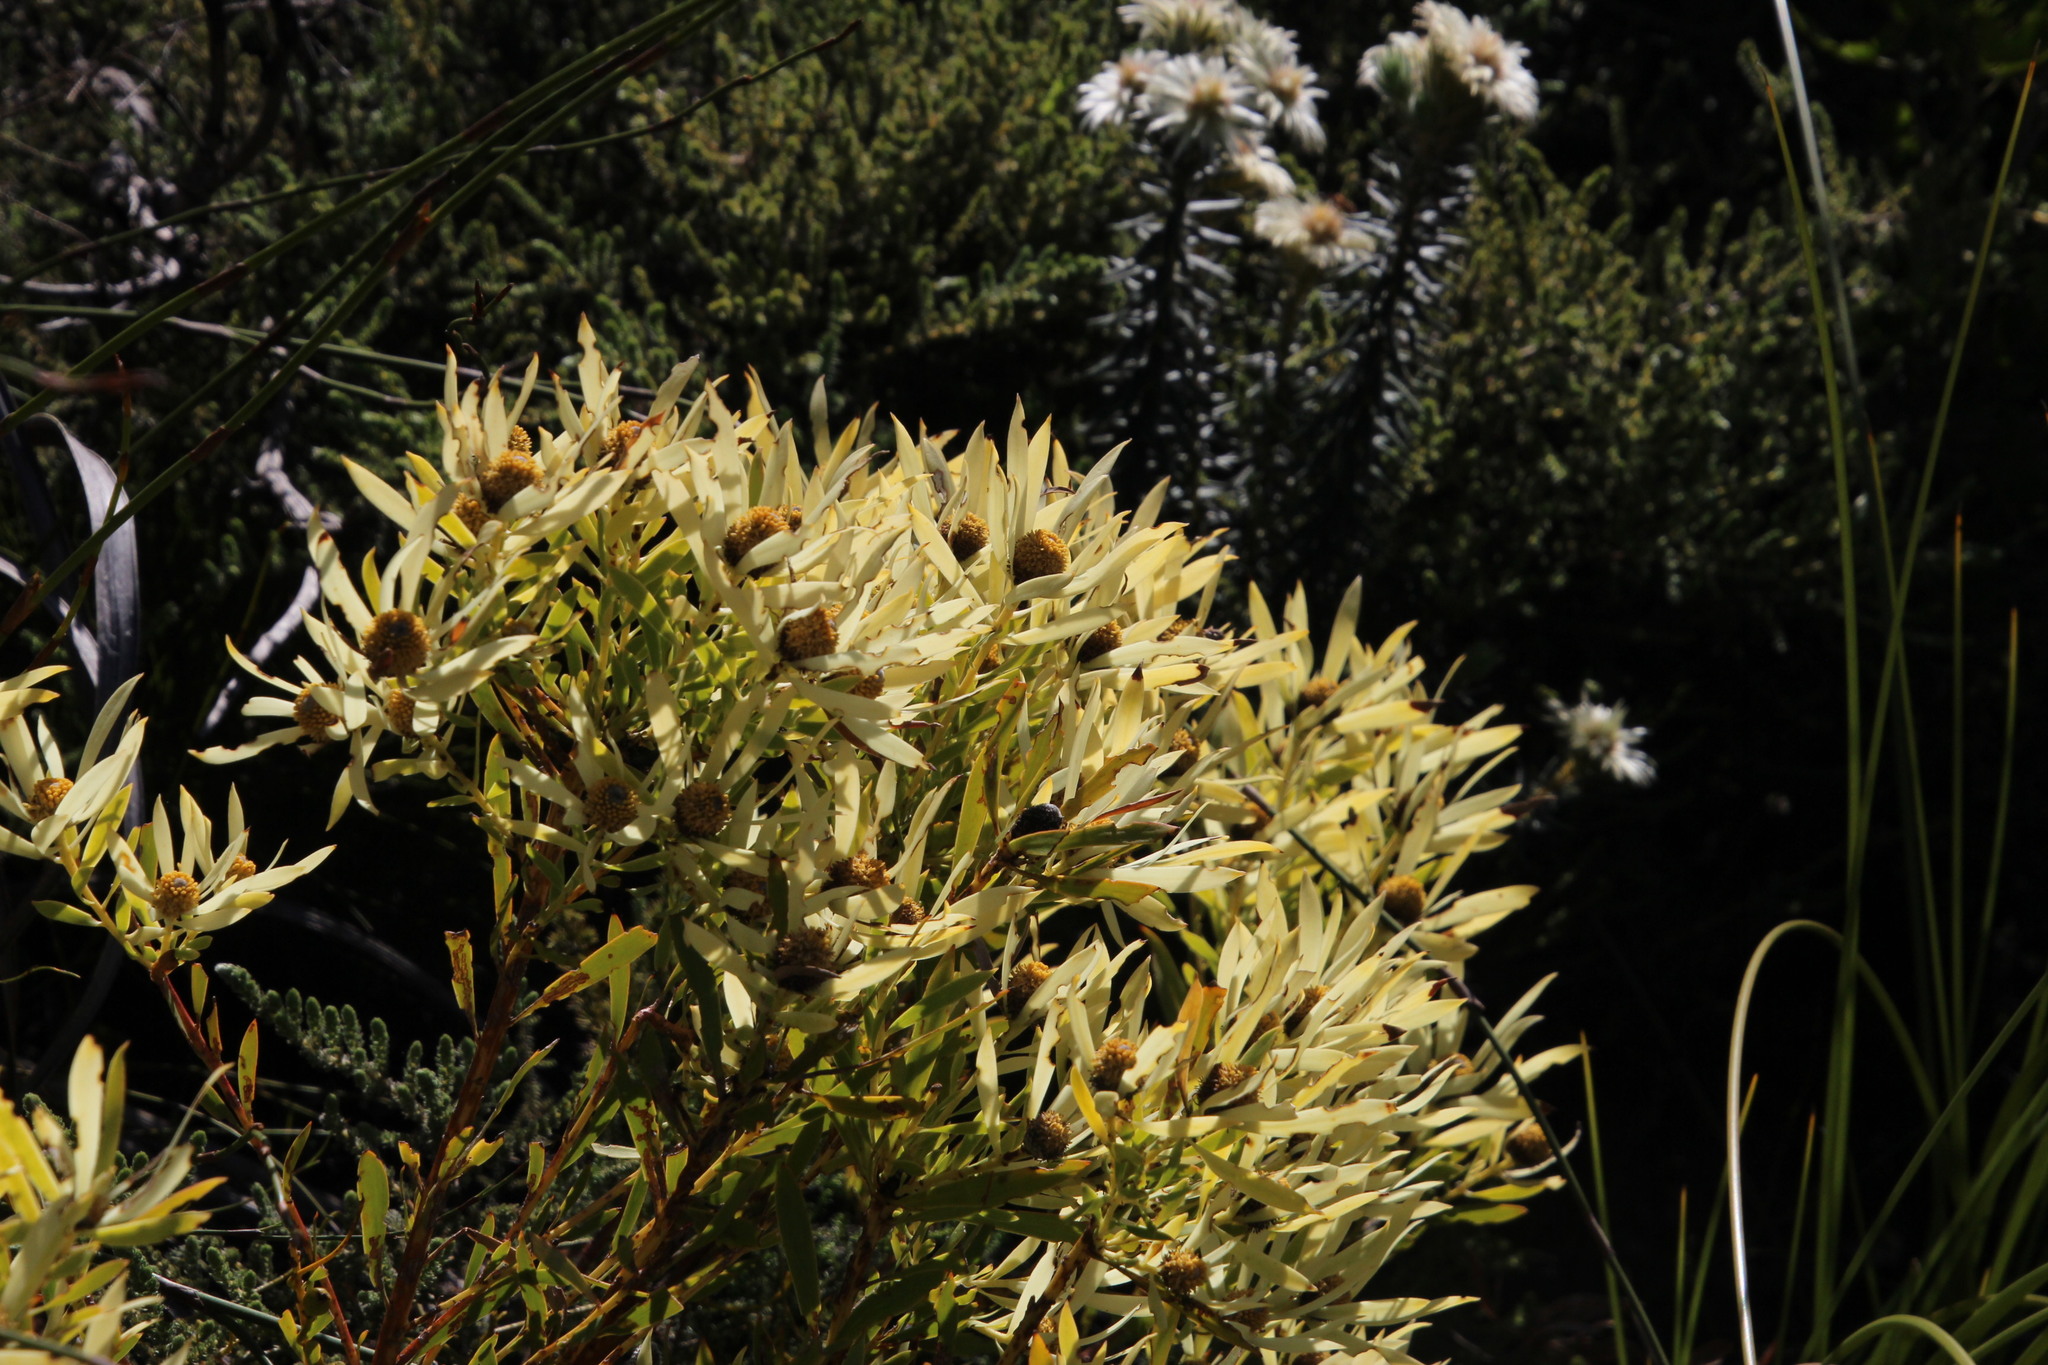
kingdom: Plantae
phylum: Tracheophyta
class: Magnoliopsida
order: Proteales
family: Proteaceae
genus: Leucadendron
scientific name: Leucadendron salignum
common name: Common sunshine conebush
